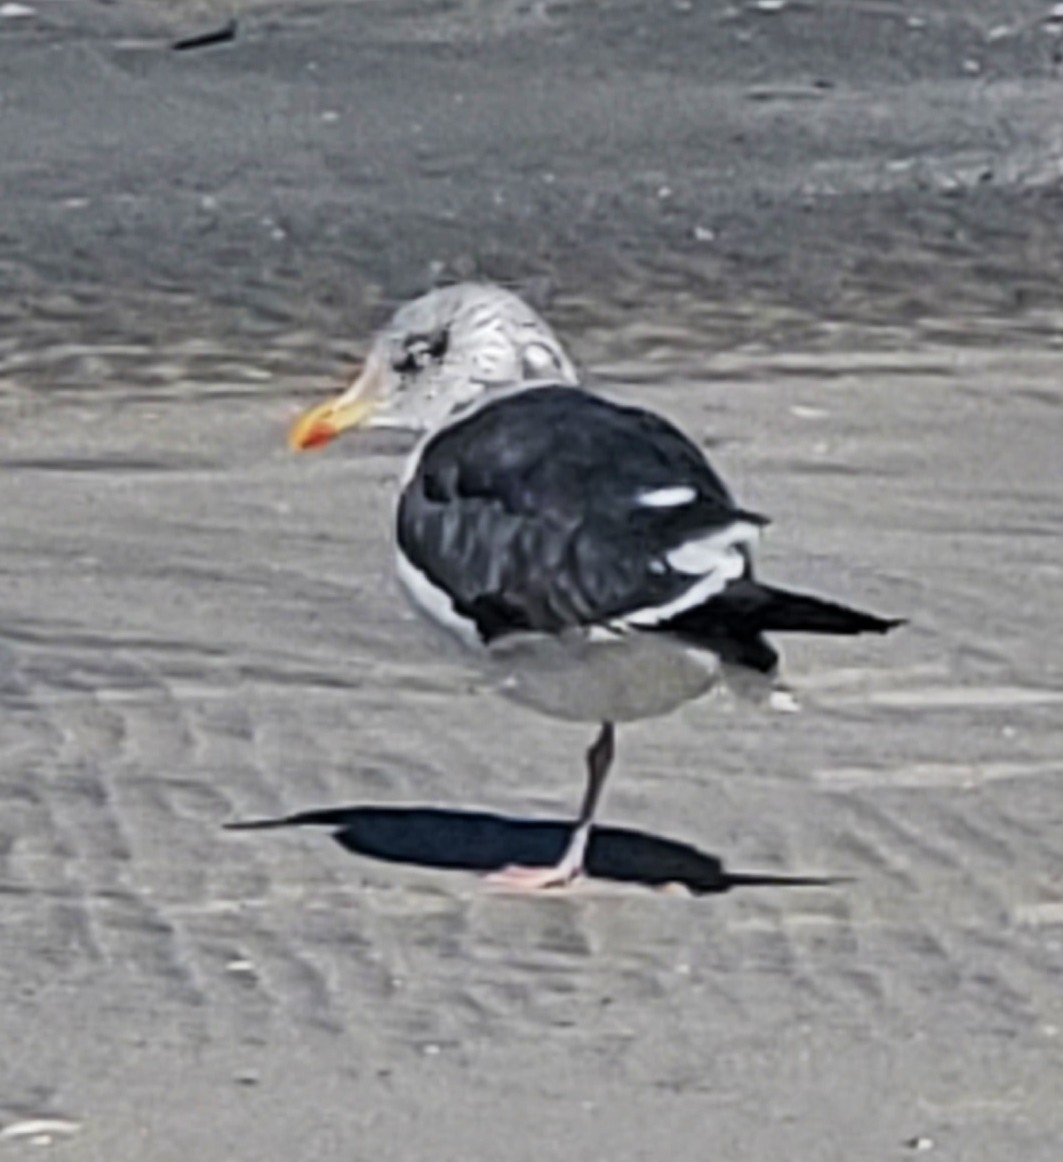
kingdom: Animalia
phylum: Chordata
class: Aves
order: Charadriiformes
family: Laridae
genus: Larus
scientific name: Larus marinus
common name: Great black-backed gull
